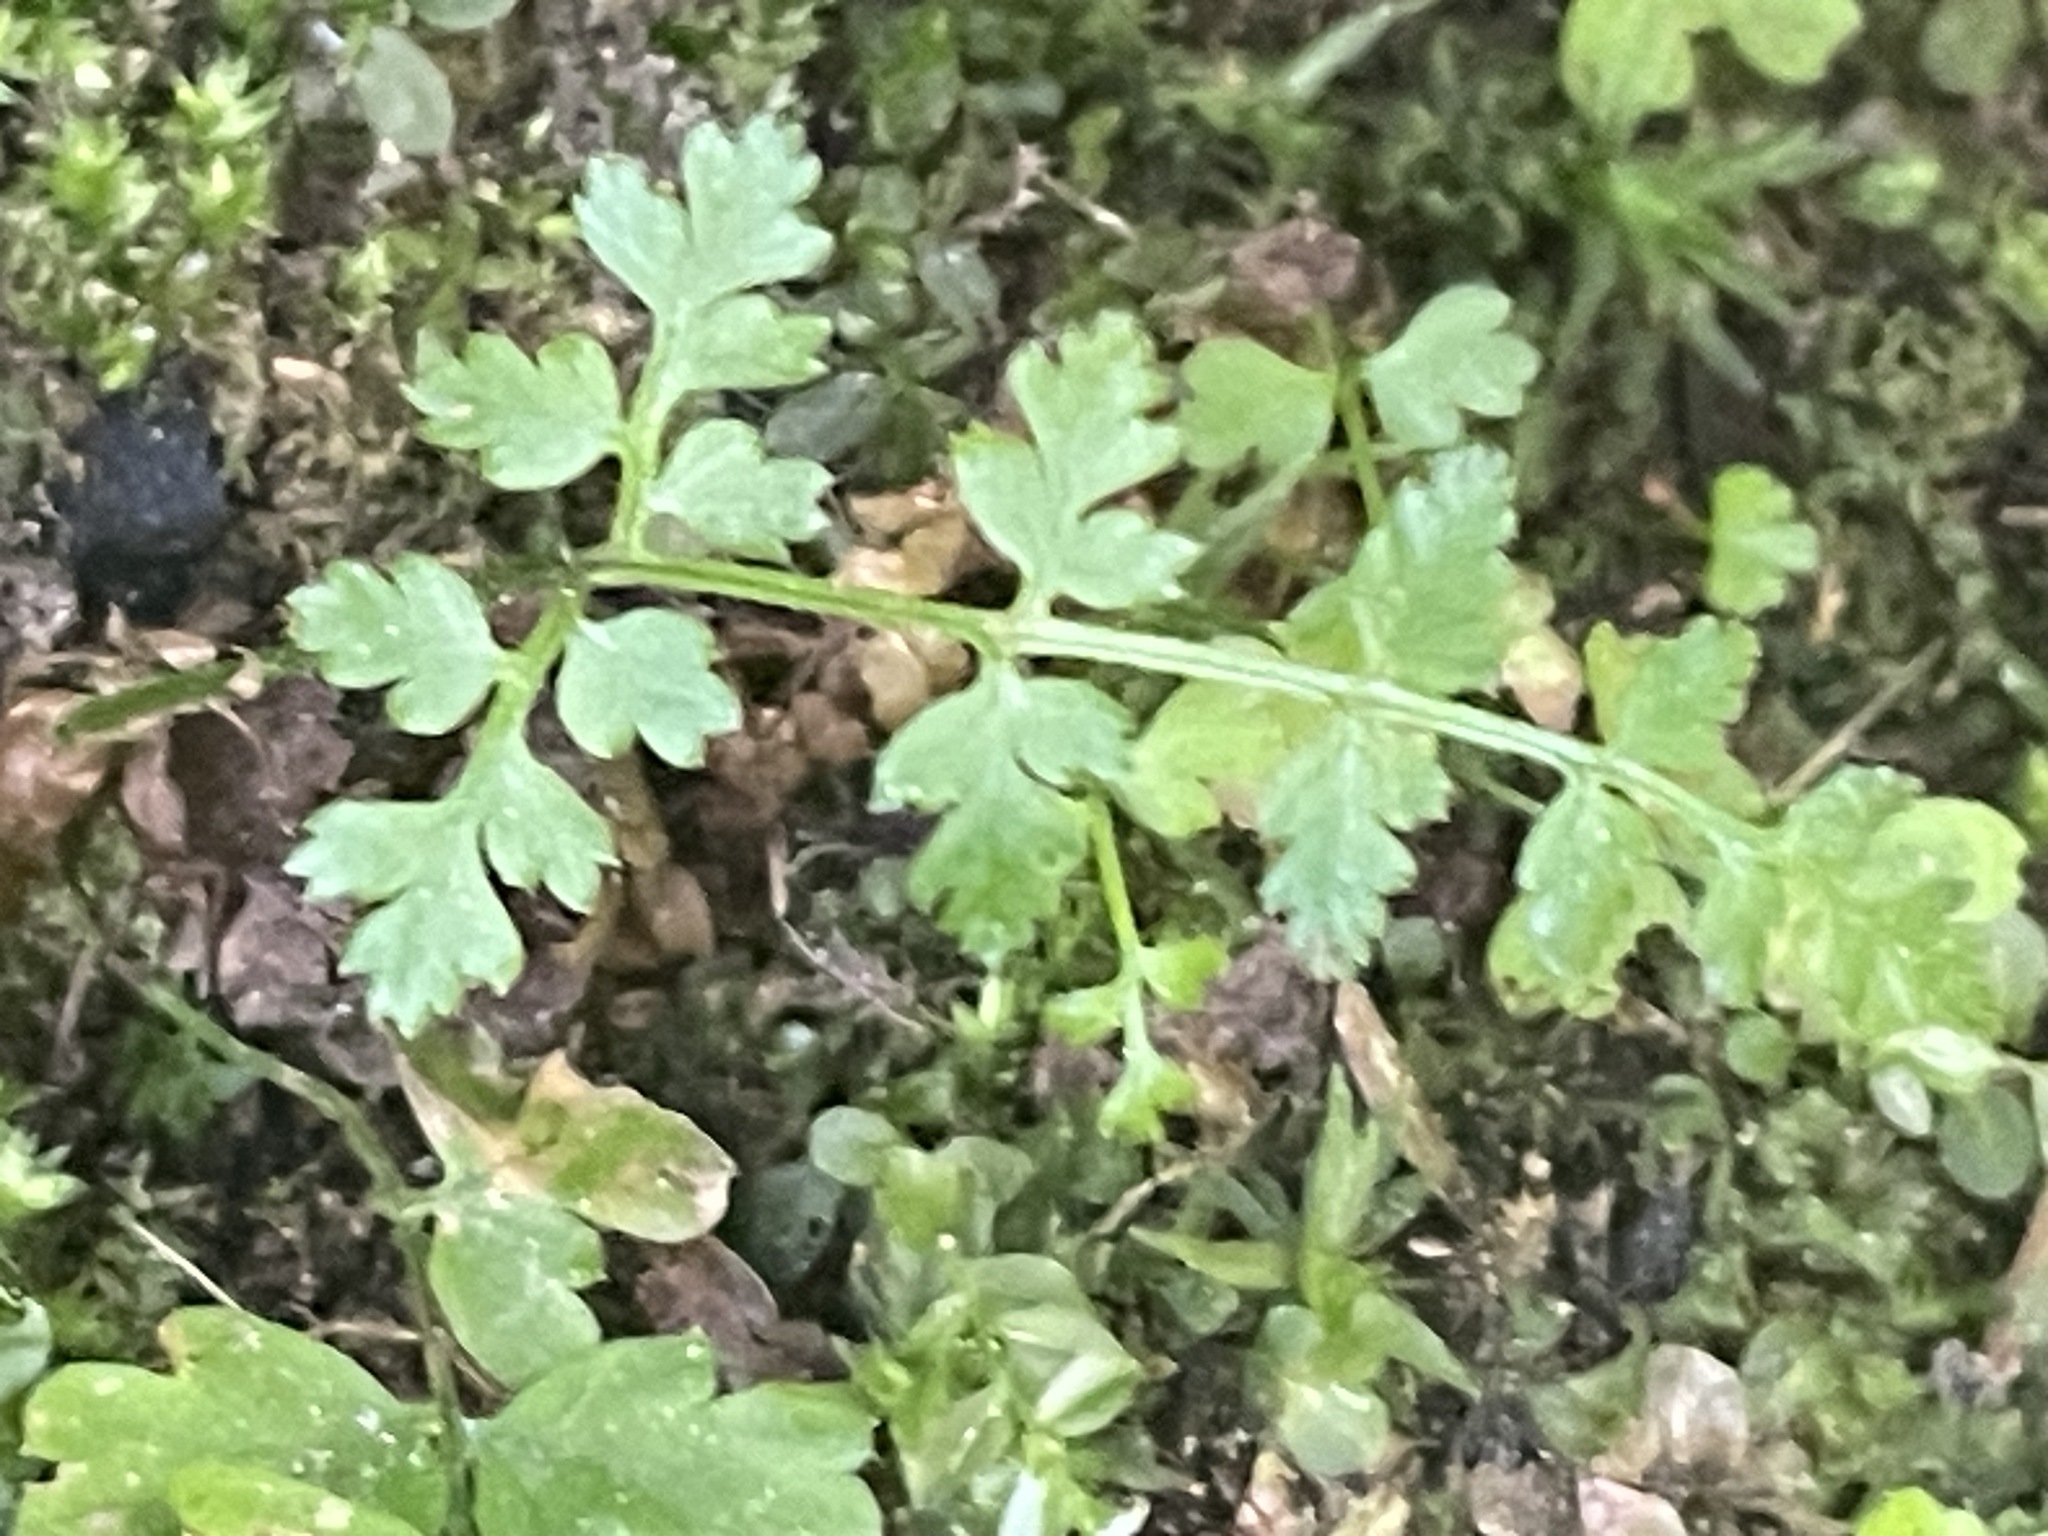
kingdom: Plantae
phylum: Tracheophyta
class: Polypodiopsida
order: Polypodiales
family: Dryopteridaceae
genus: Dryopteris
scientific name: Dryopteris
